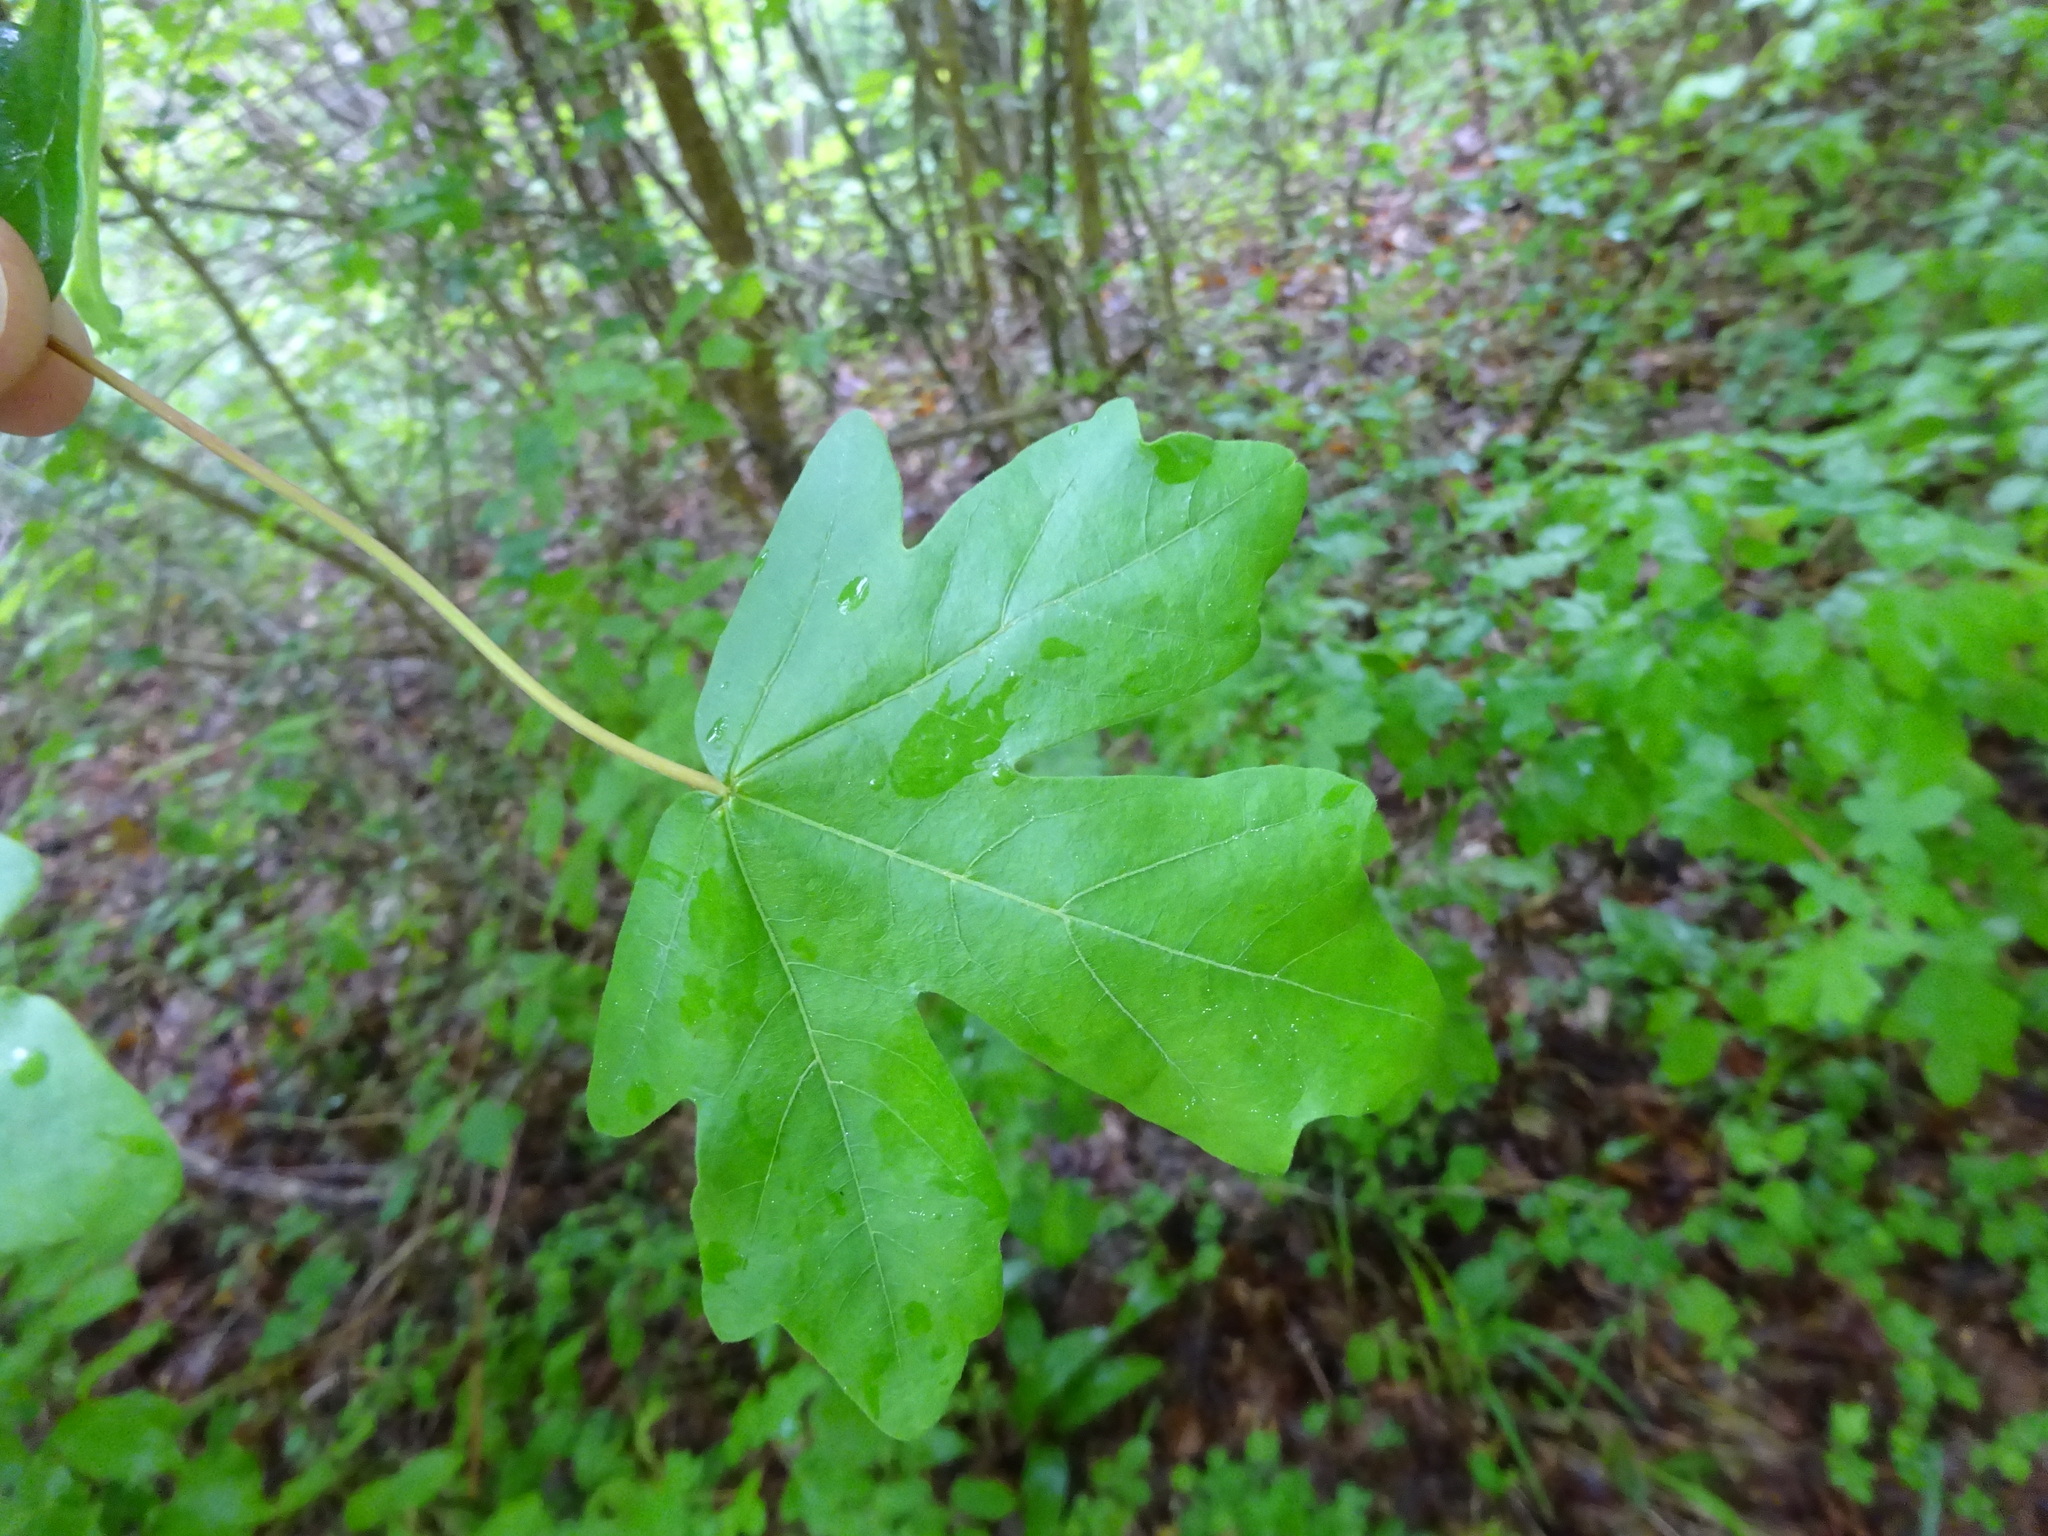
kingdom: Plantae
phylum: Tracheophyta
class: Magnoliopsida
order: Sapindales
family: Sapindaceae
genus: Acer
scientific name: Acer campestre
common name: Field maple
